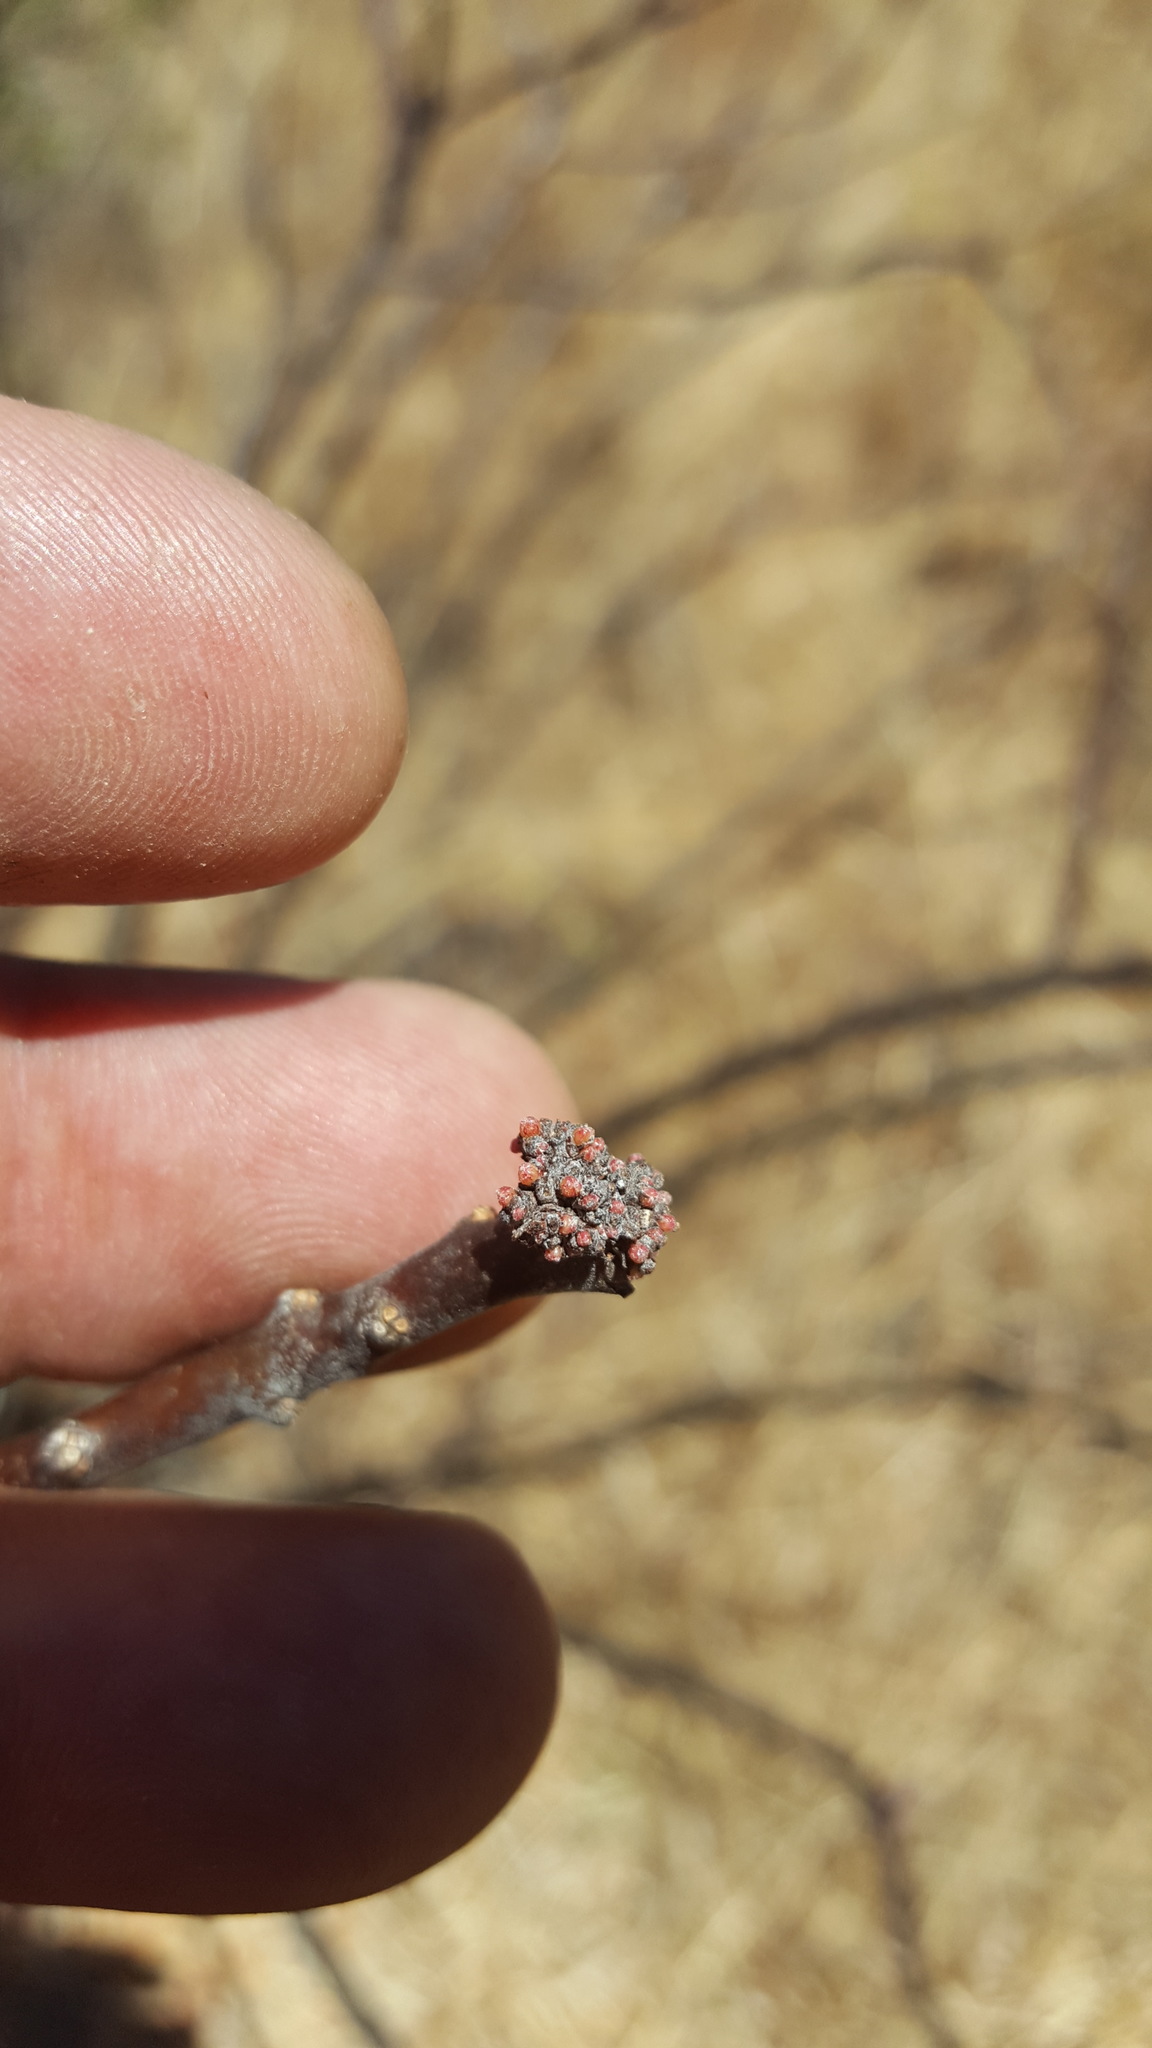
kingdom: Plantae
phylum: Tracheophyta
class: Magnoliopsida
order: Malpighiales
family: Euphorbiaceae
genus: Jatropha
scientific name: Jatropha oaxacana
